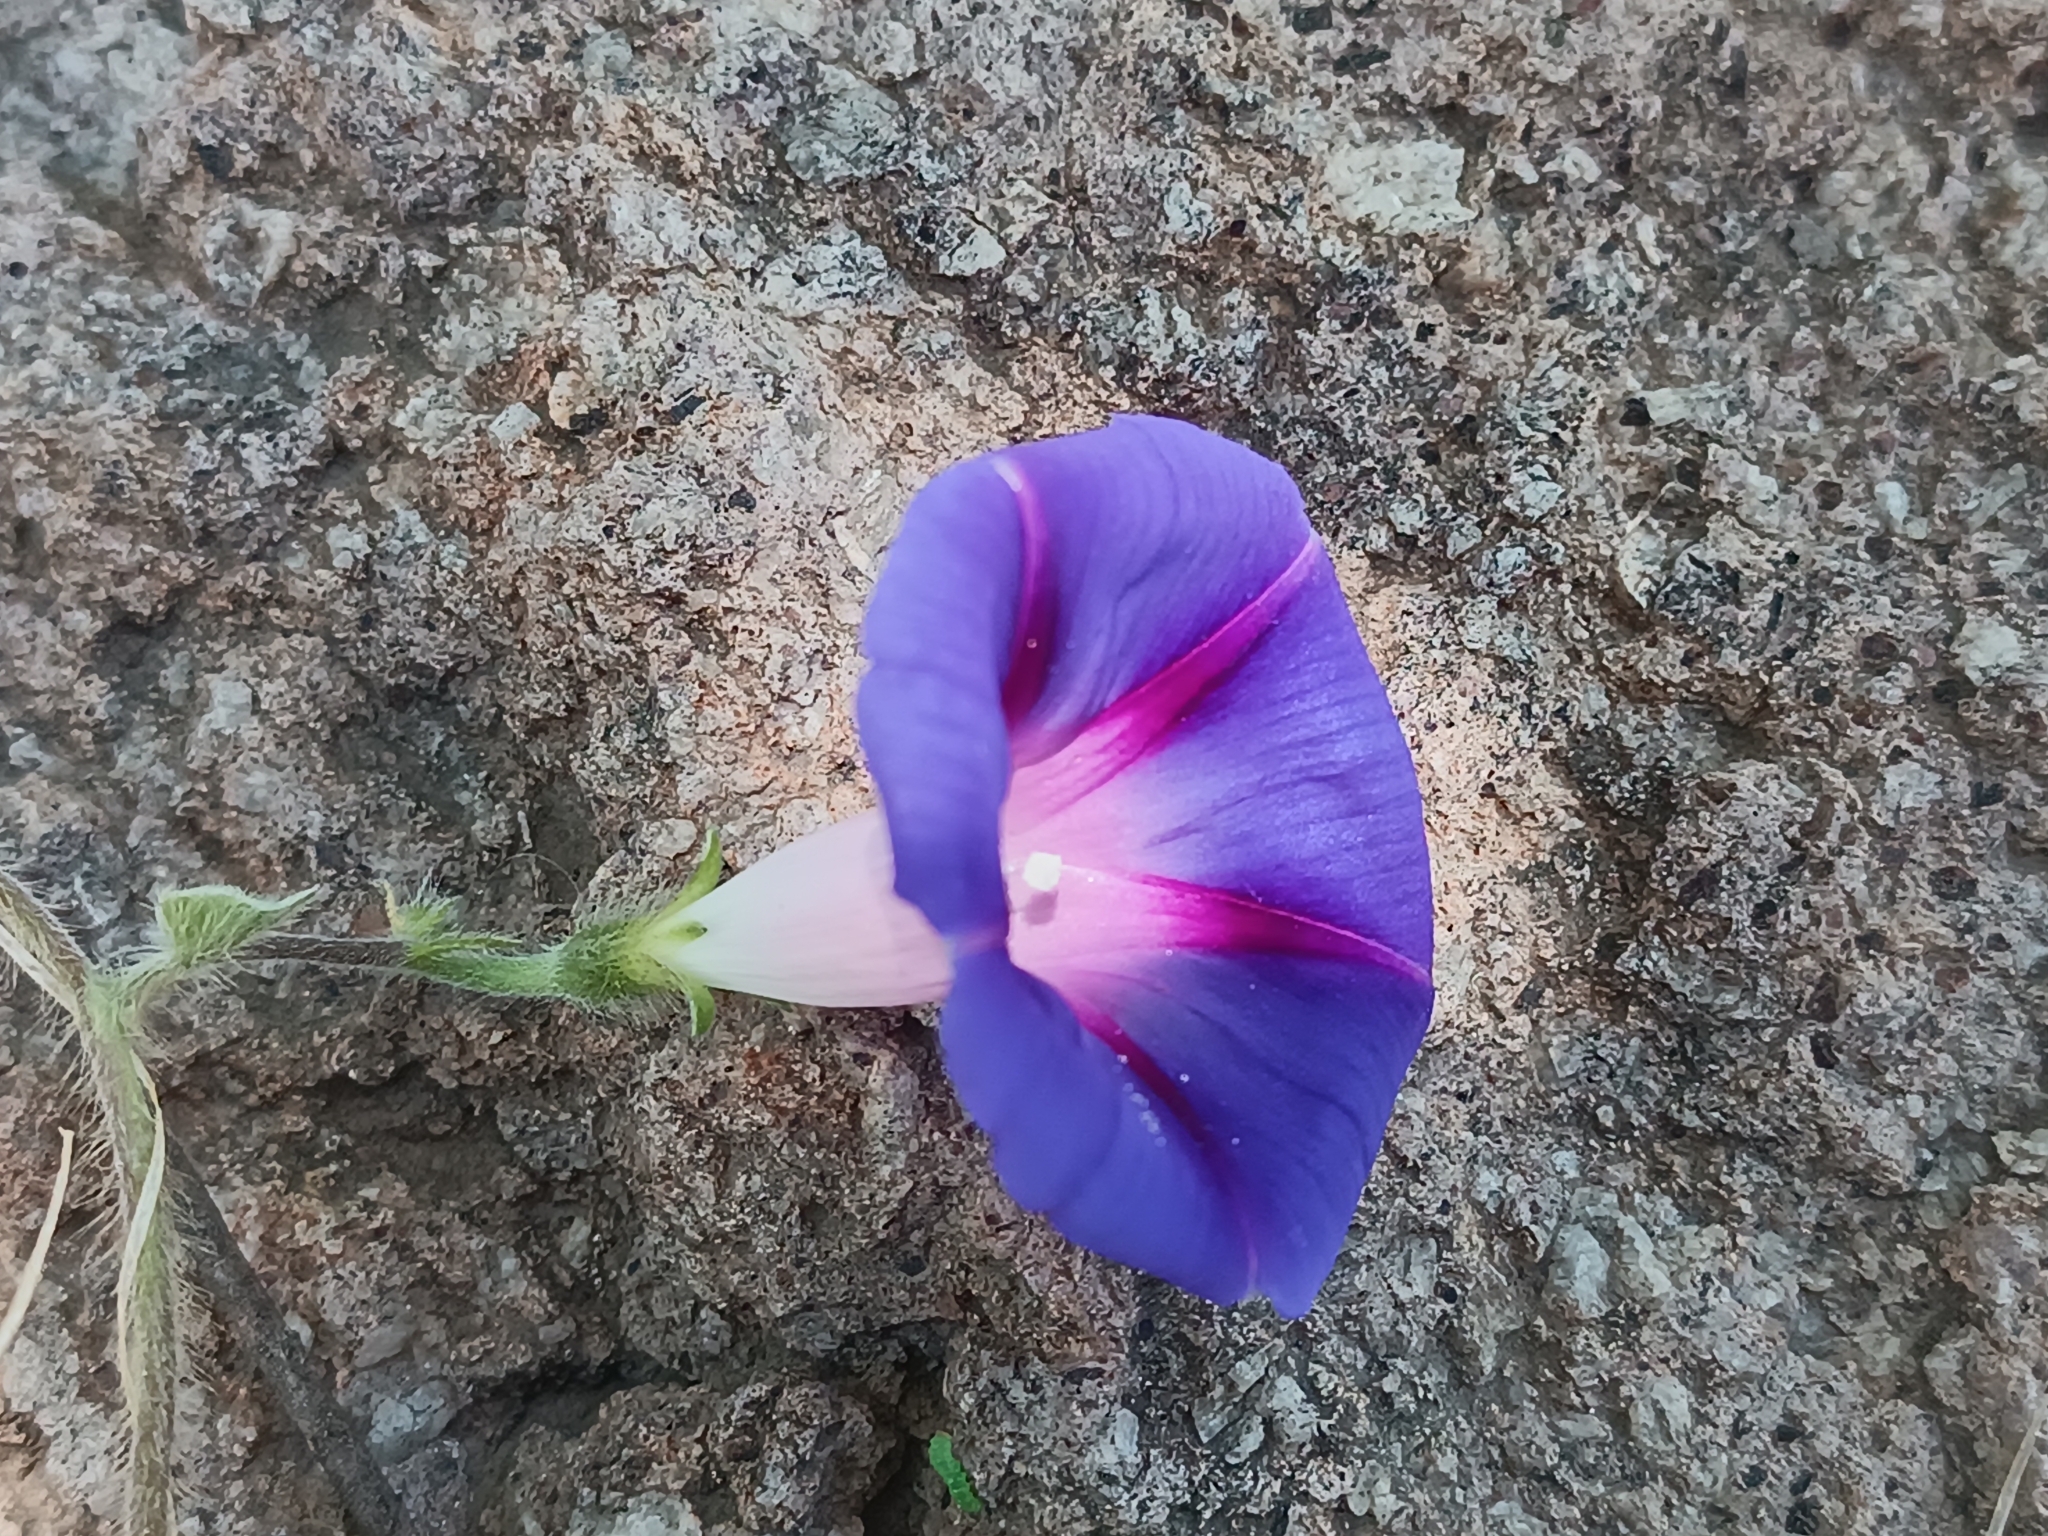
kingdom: Plantae
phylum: Tracheophyta
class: Magnoliopsida
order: Solanales
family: Convolvulaceae
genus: Ipomoea
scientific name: Ipomoea purpurea
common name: Common morning-glory
